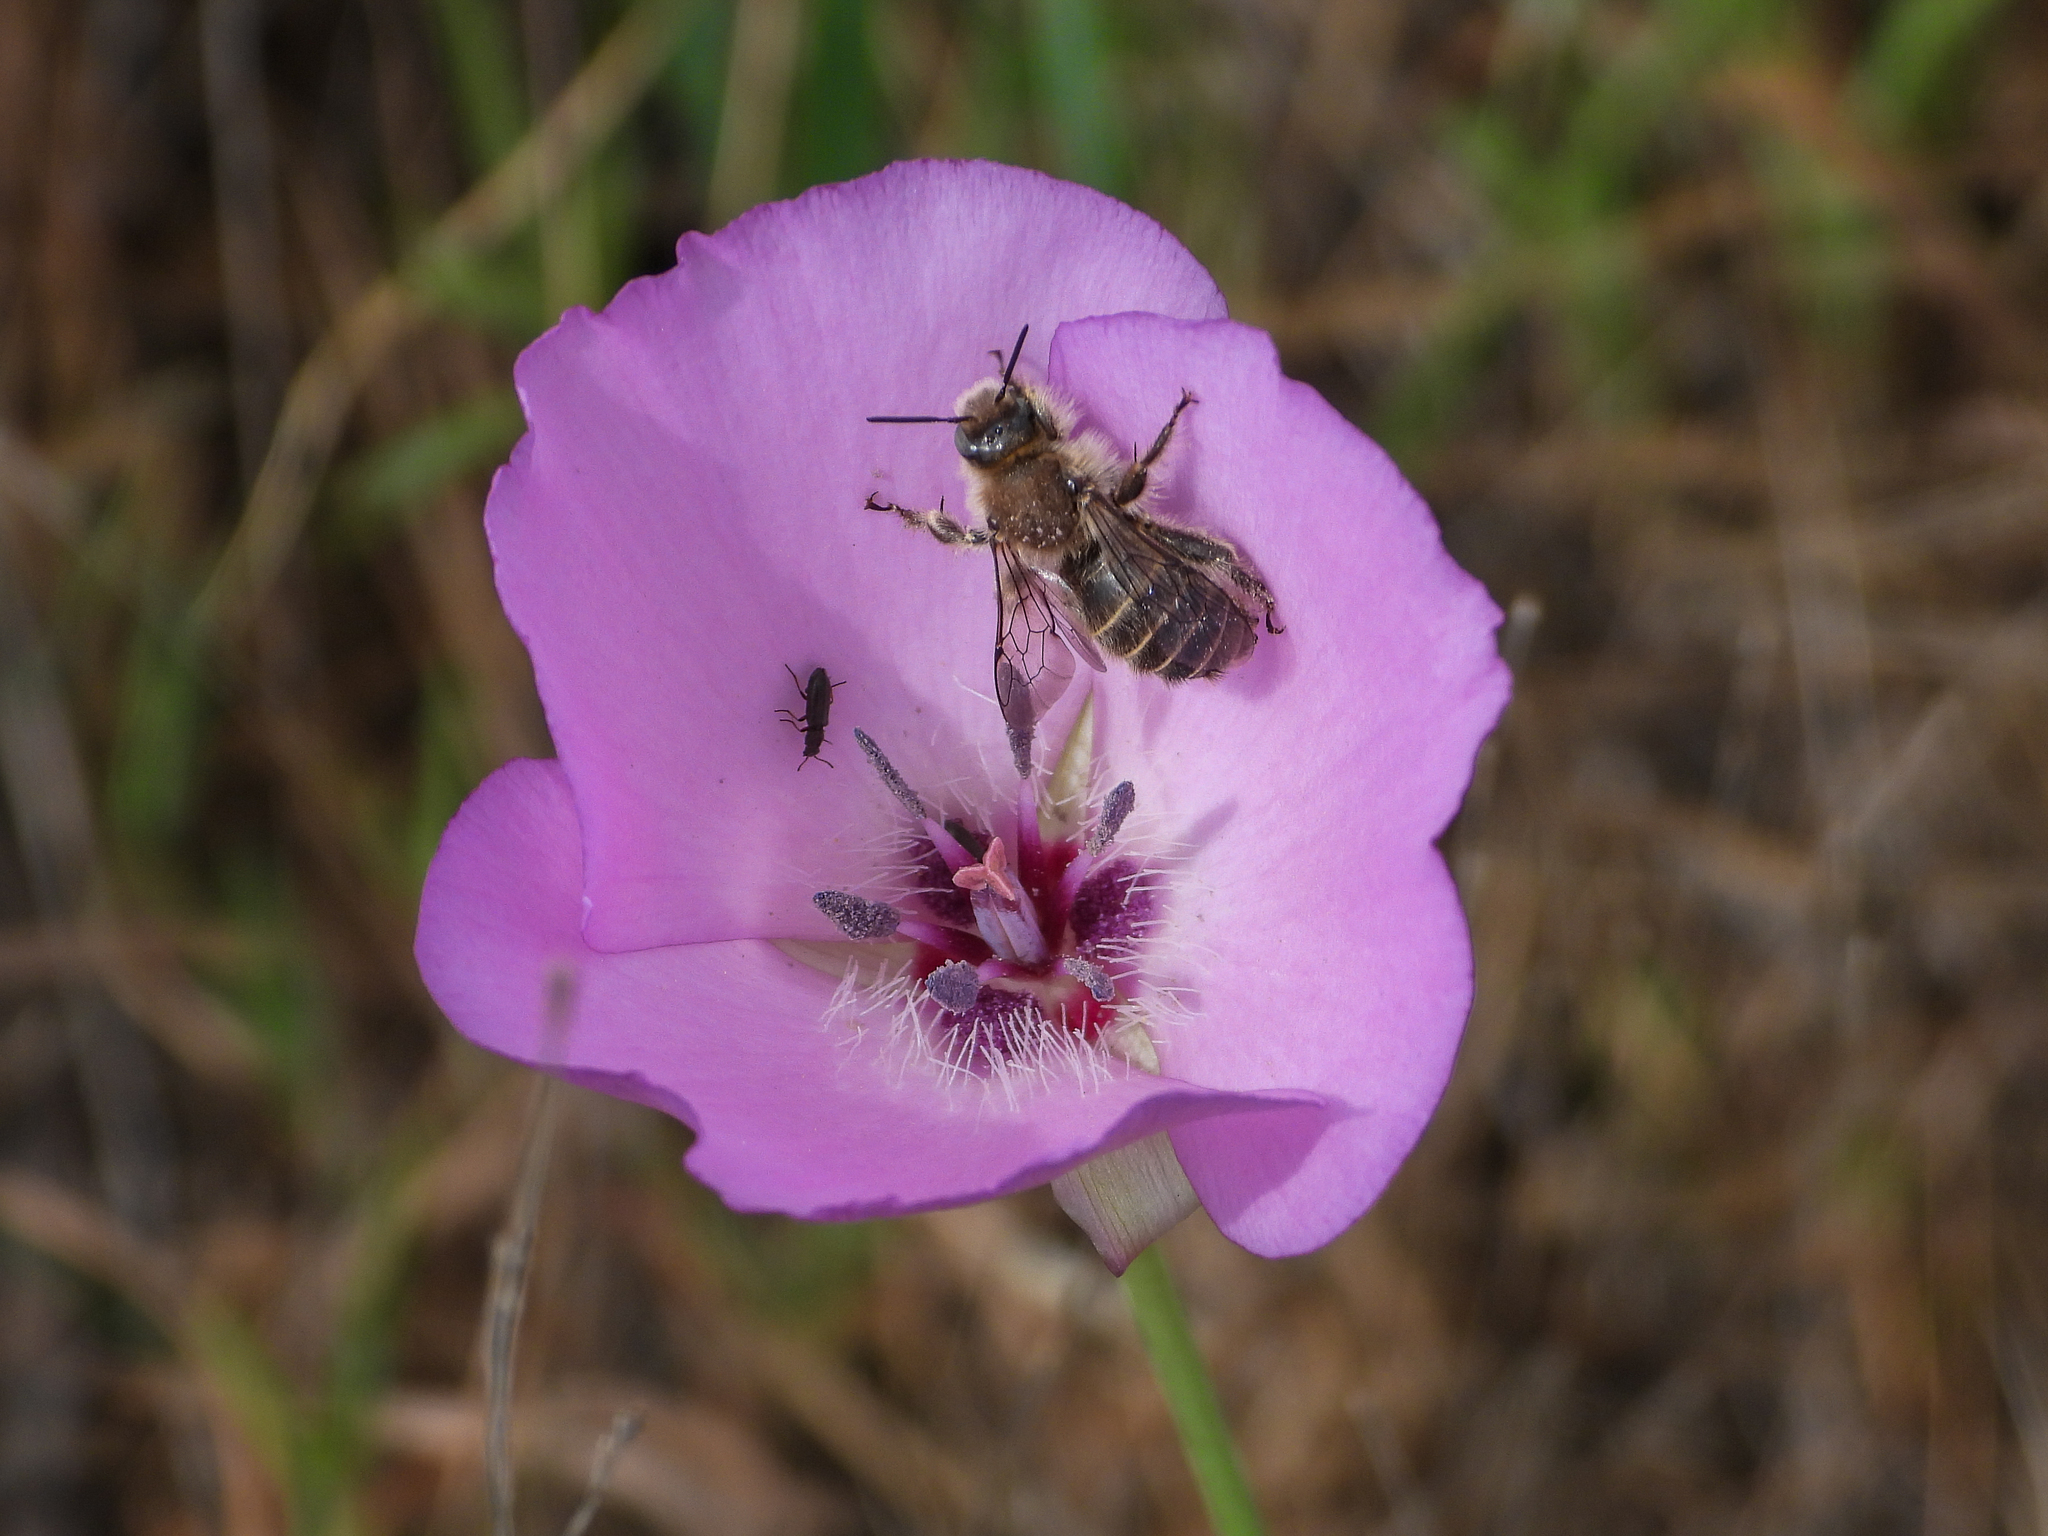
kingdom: Plantae
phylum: Tracheophyta
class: Liliopsida
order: Liliales
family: Liliaceae
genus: Calochortus
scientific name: Calochortus splendens
